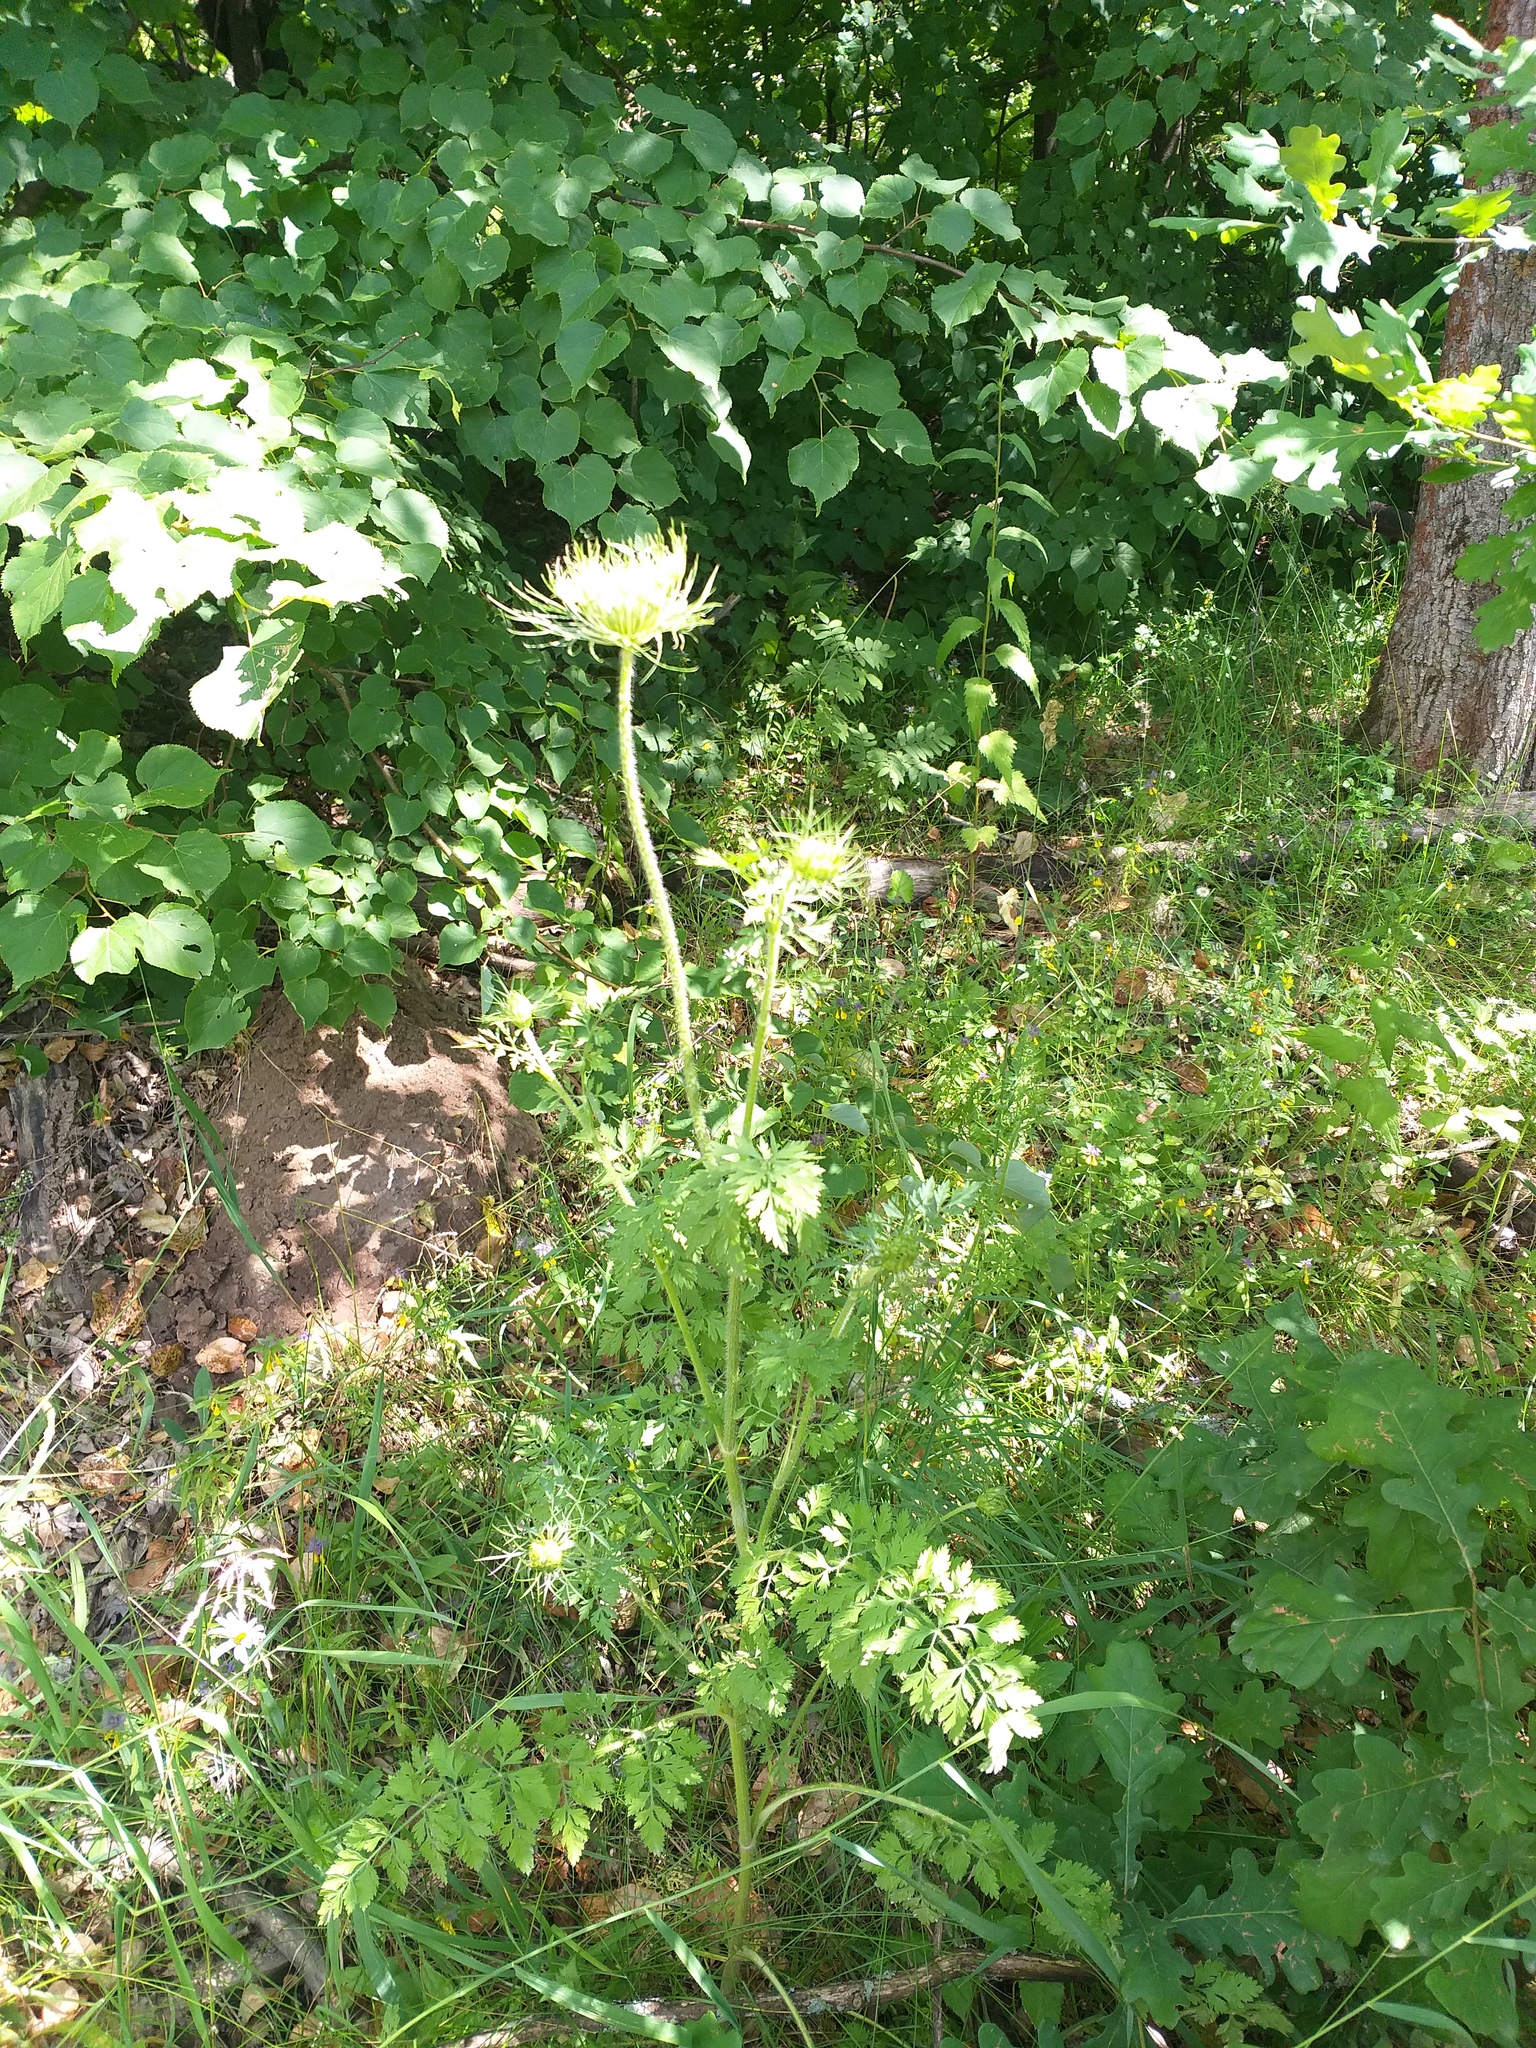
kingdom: Plantae
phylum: Tracheophyta
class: Magnoliopsida
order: Apiales
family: Apiaceae
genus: Daucus
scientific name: Daucus carota
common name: Wild carrot
